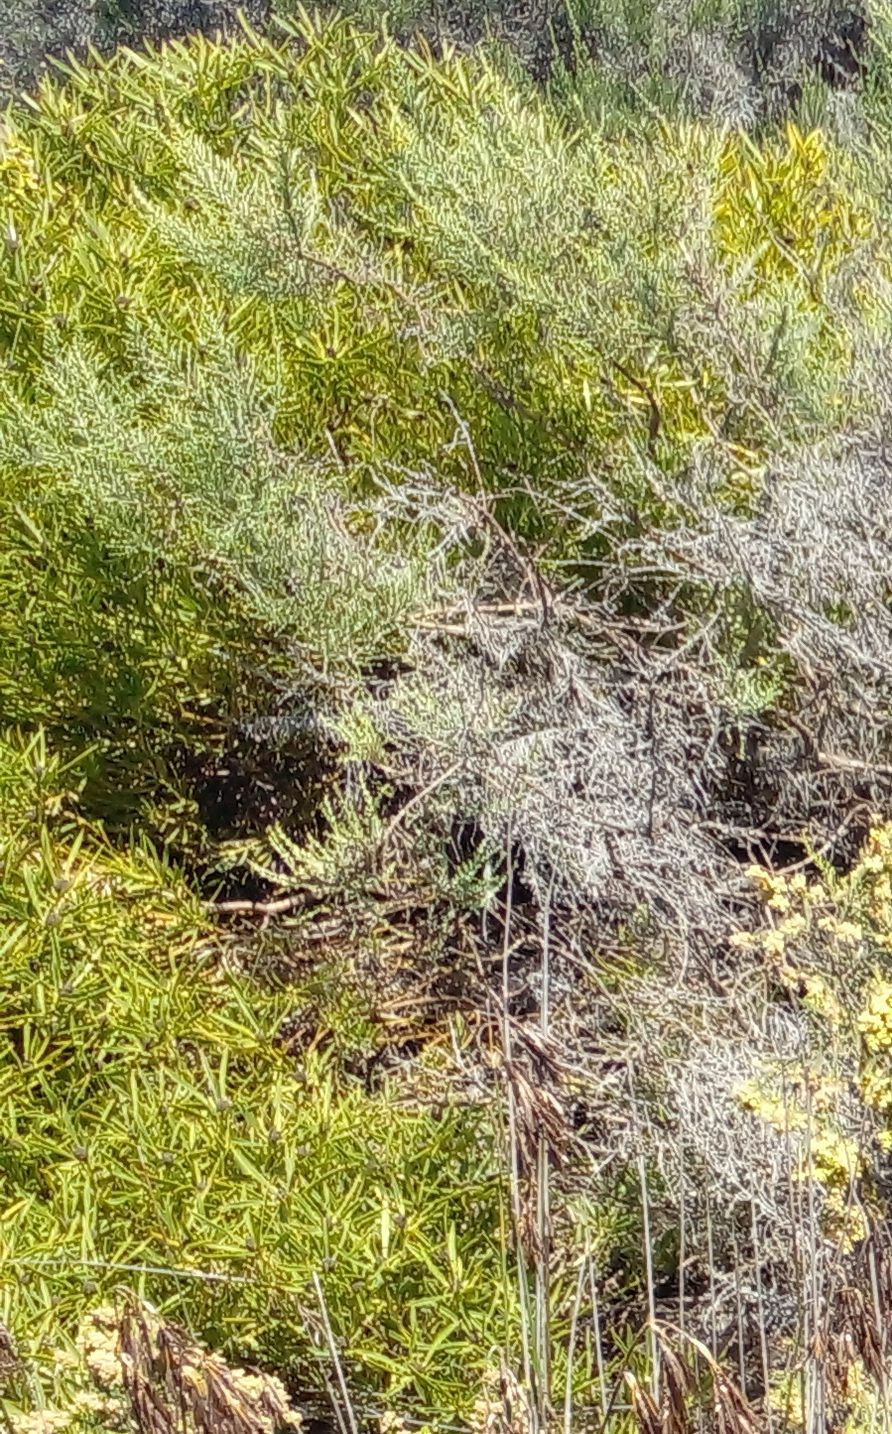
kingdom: Plantae
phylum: Tracheophyta
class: Magnoliopsida
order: Proteales
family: Proteaceae
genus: Leucadendron
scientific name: Leucadendron salignum
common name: Common sunshine conebush
